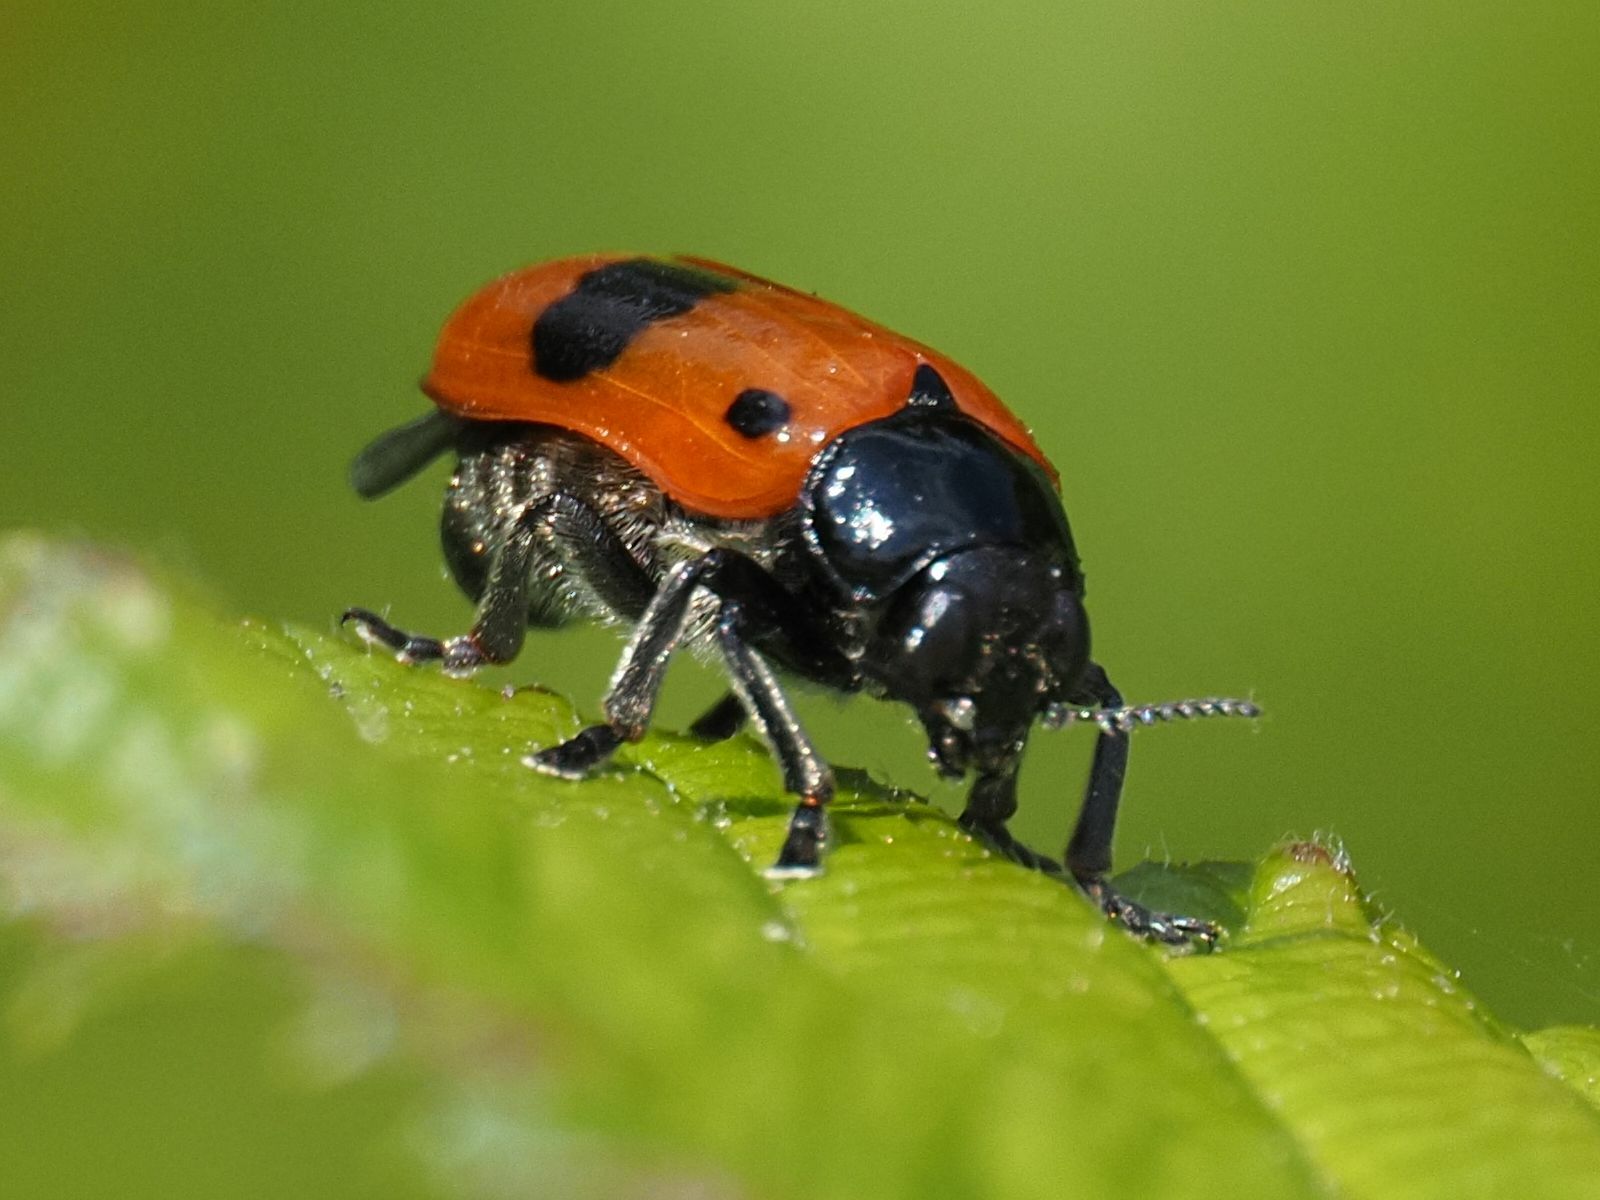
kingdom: Animalia
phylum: Arthropoda
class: Insecta
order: Coleoptera
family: Chrysomelidae
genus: Clytra
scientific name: Clytra laeviuscula
